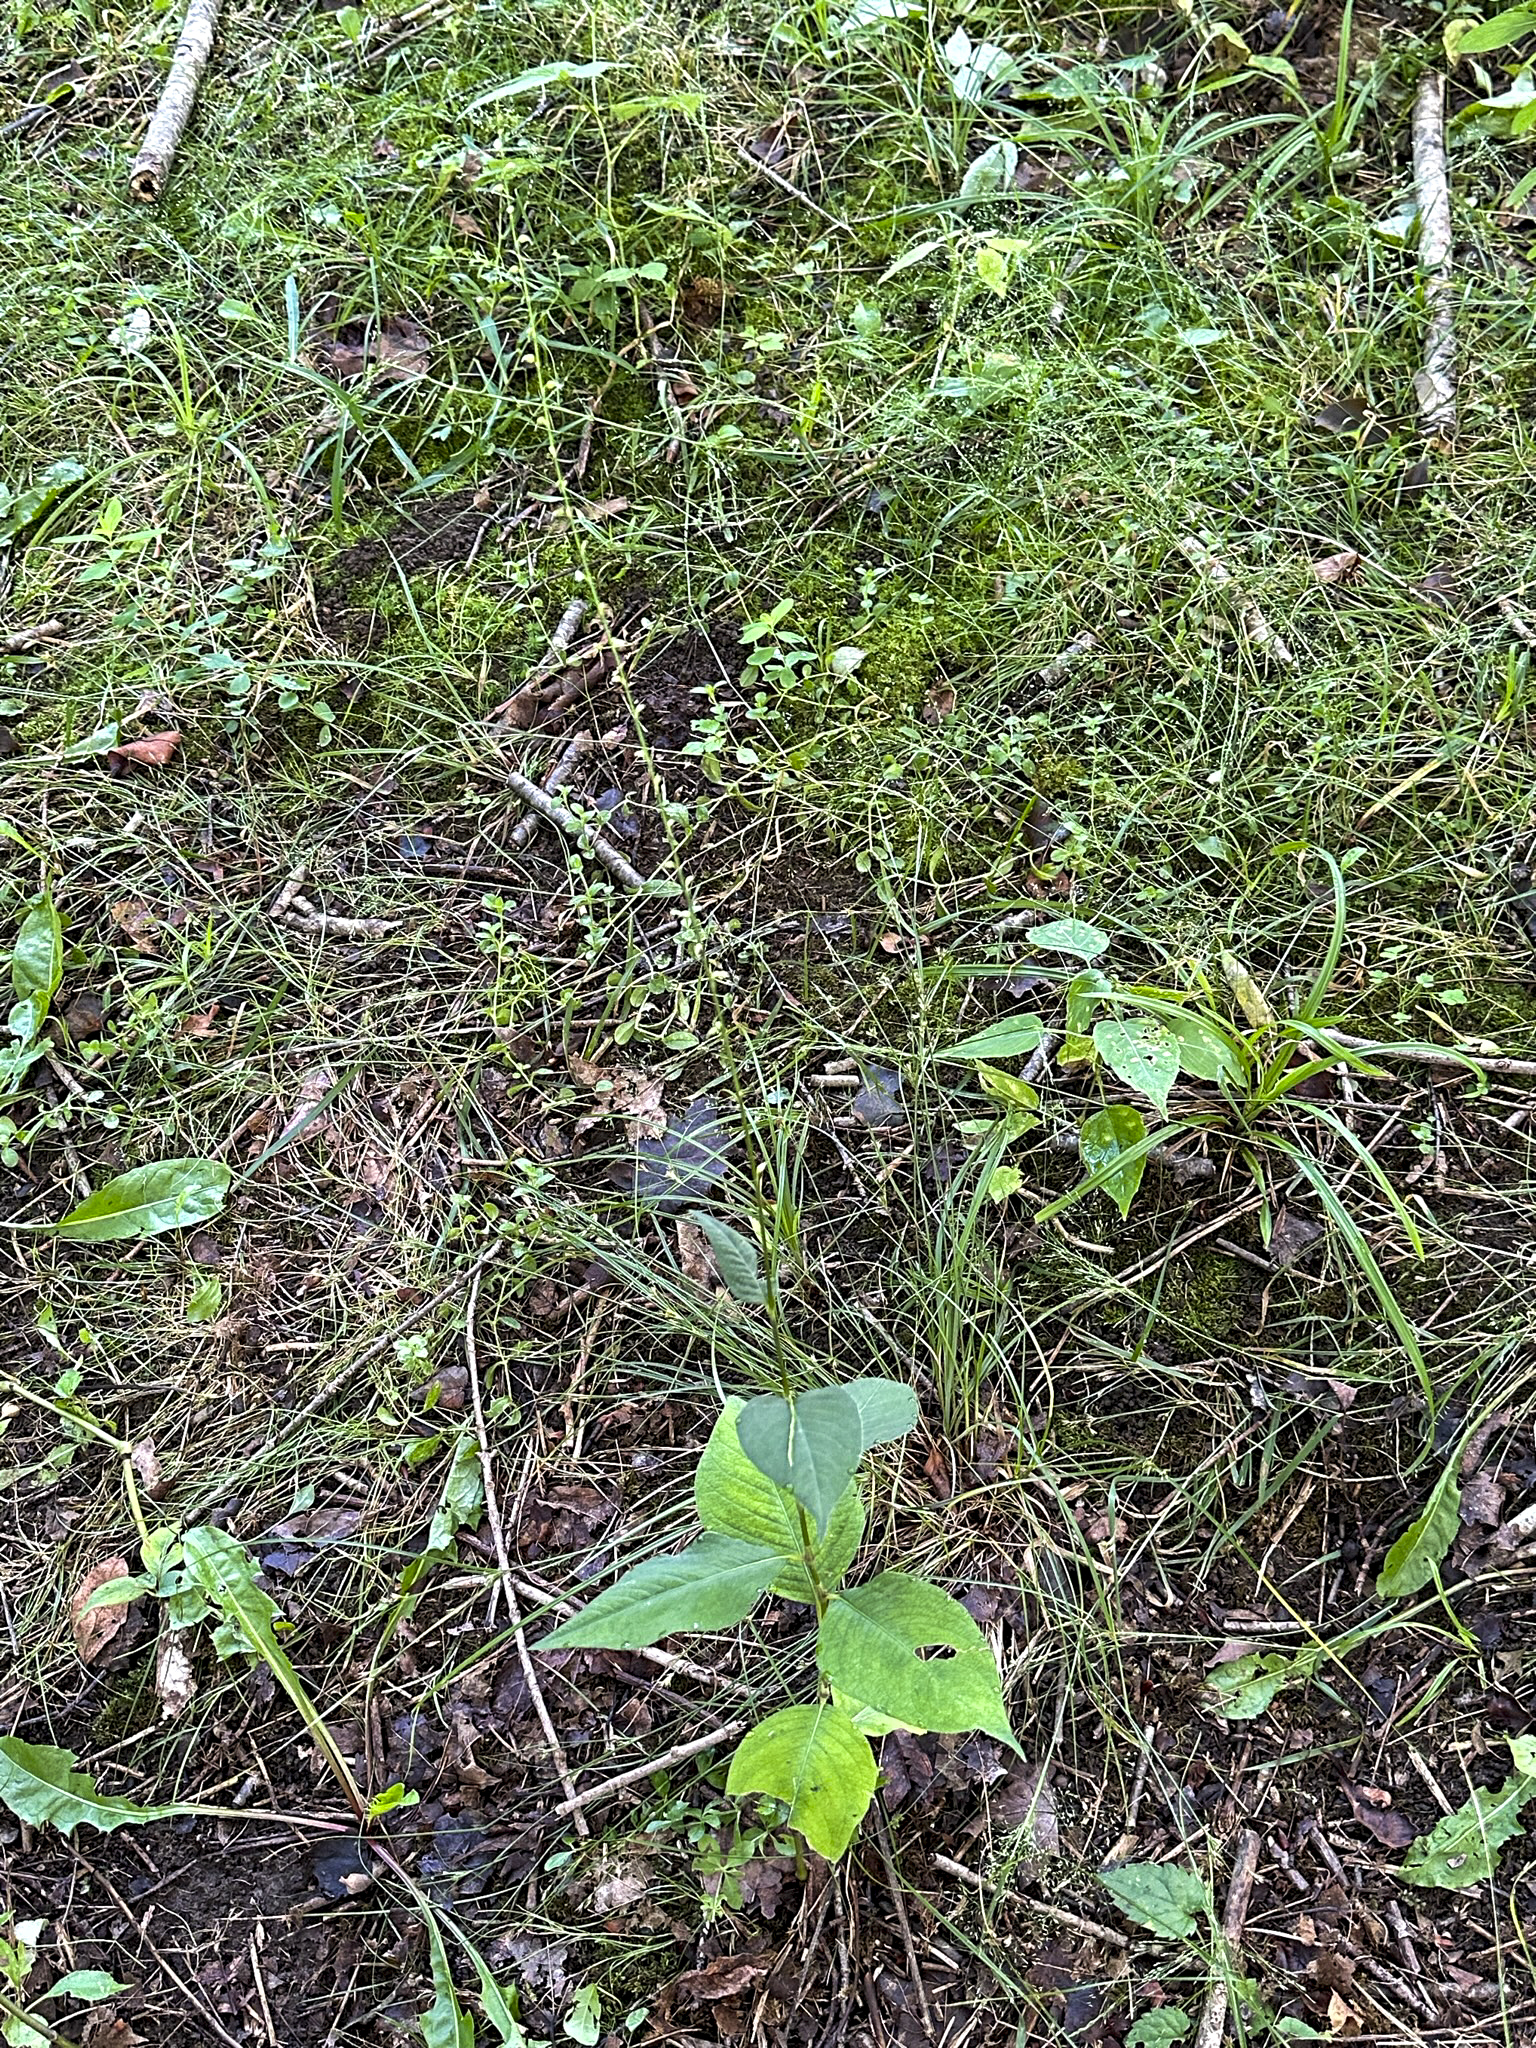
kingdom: Plantae
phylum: Tracheophyta
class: Magnoliopsida
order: Caryophyllales
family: Polygonaceae
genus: Persicaria
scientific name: Persicaria virginiana
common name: Jumpseed
